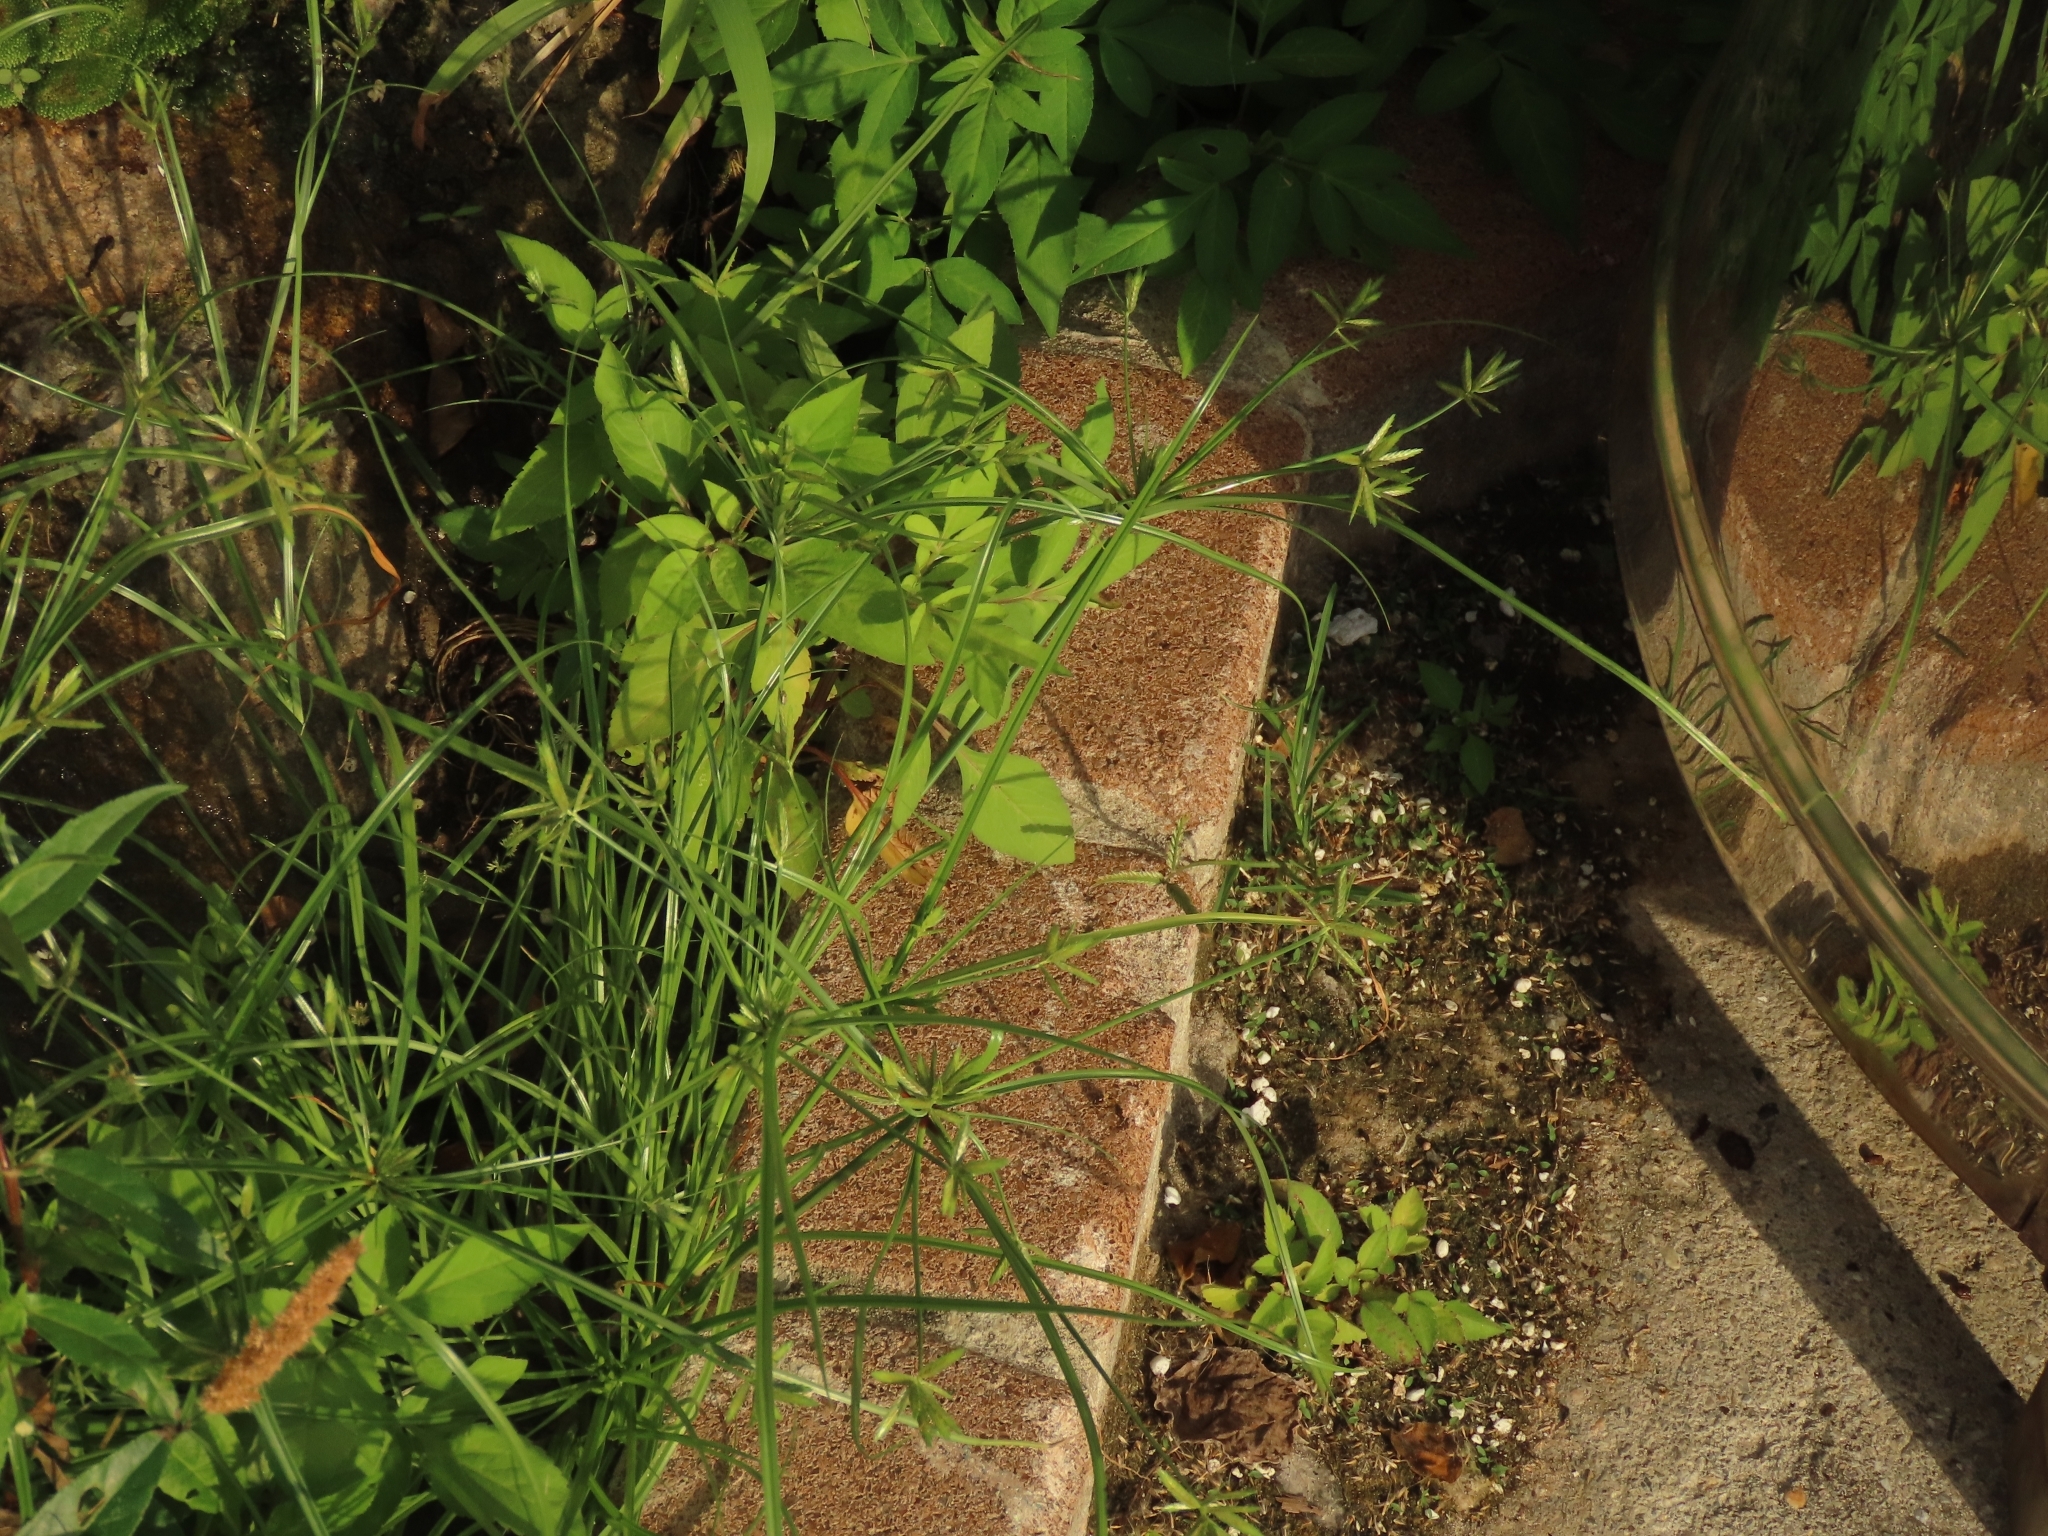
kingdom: Plantae
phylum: Tracheophyta
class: Liliopsida
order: Poales
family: Cyperaceae
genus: Cyperus
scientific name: Cyperus compressus
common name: Poorland flatsedge
